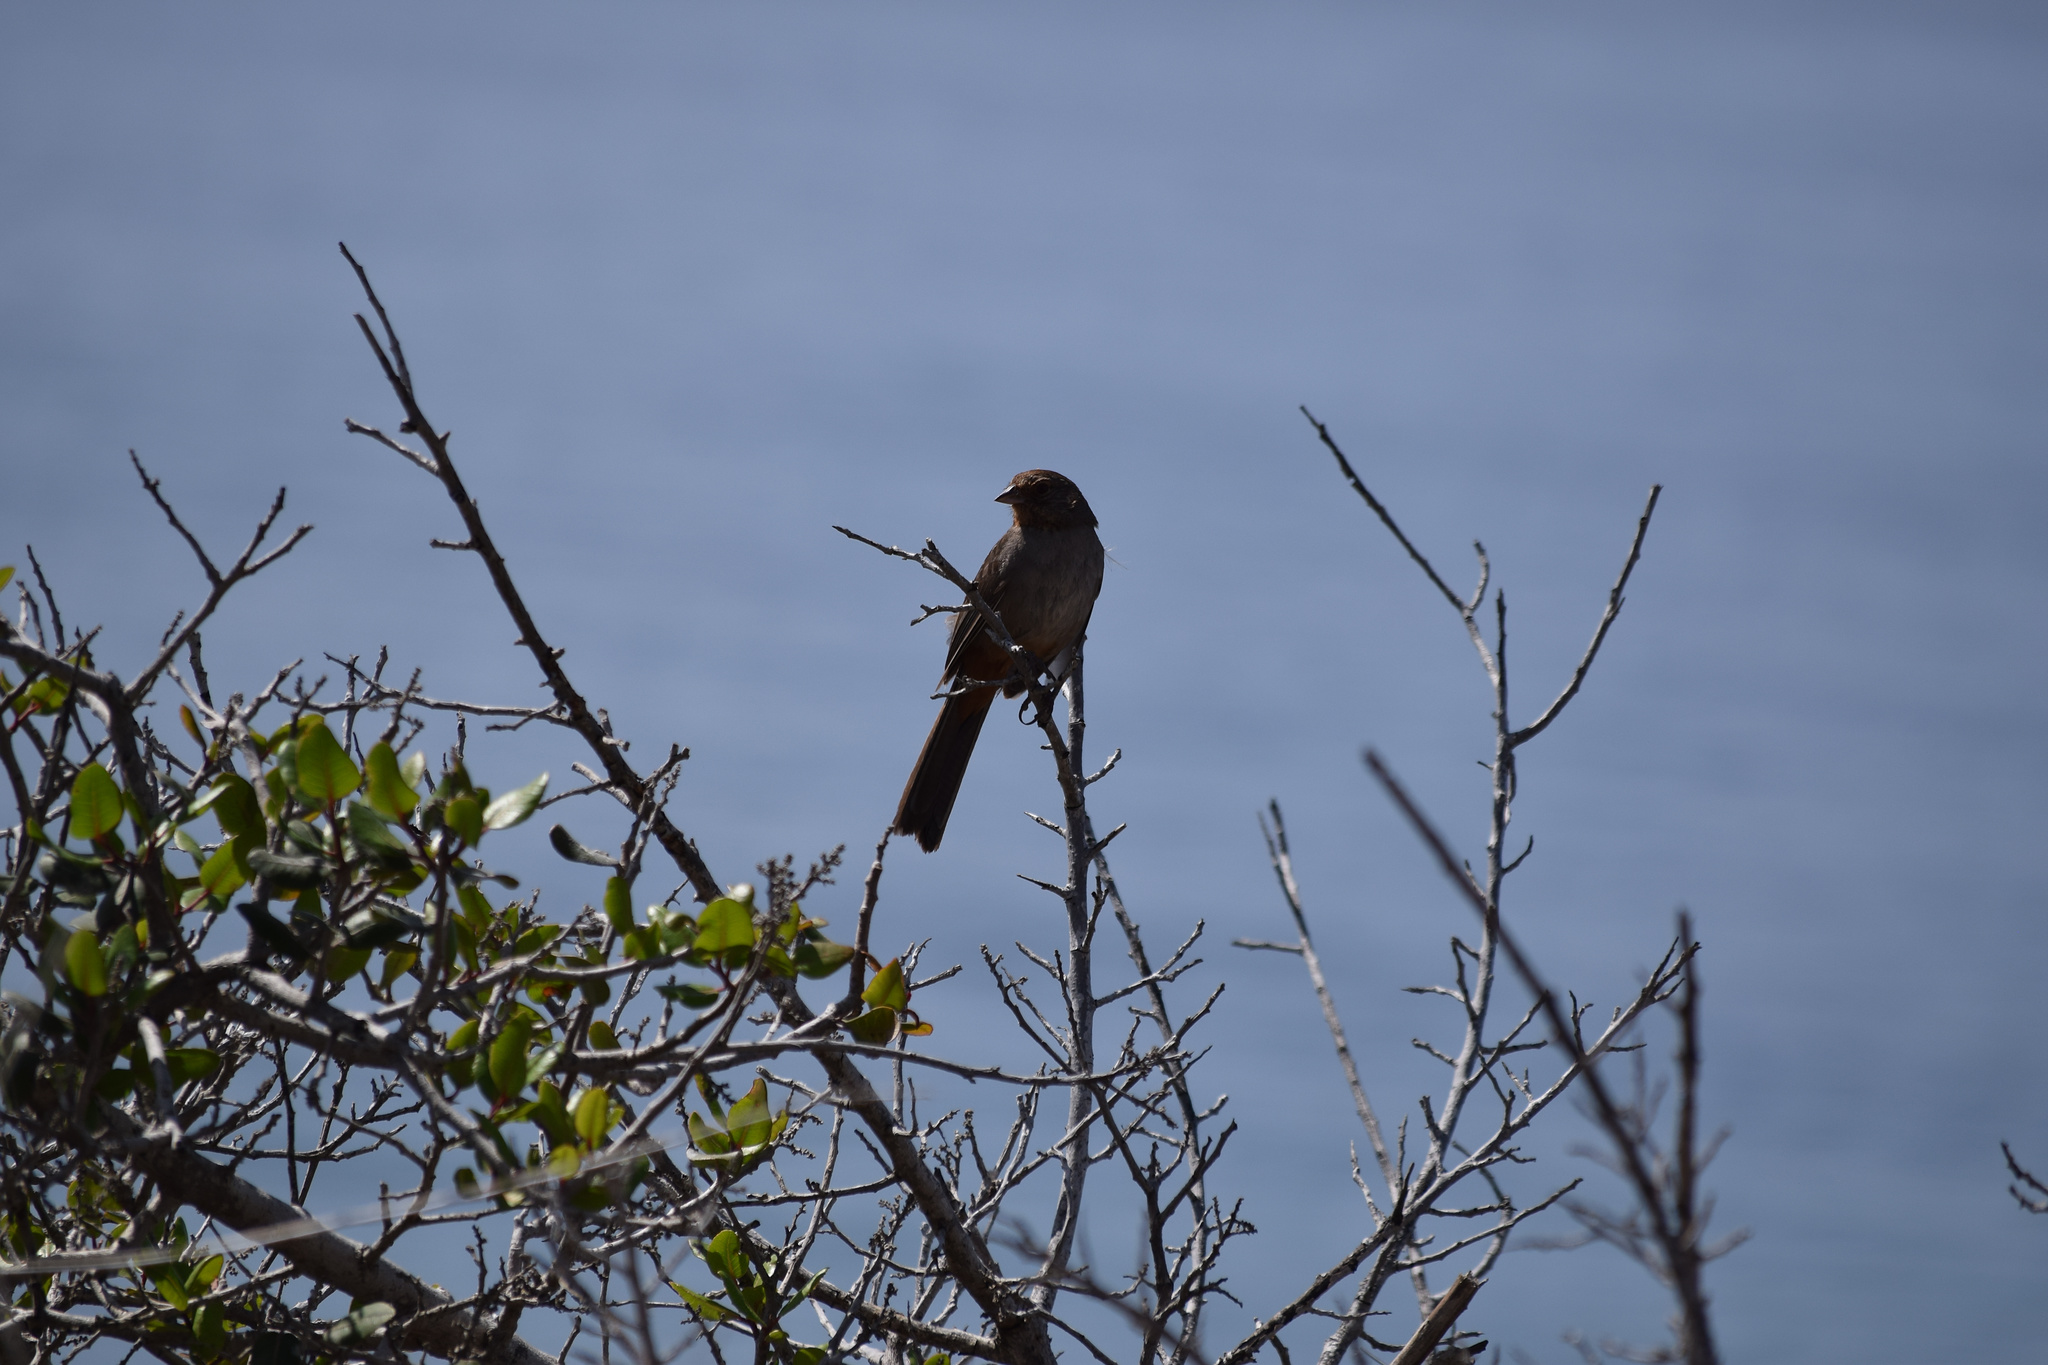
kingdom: Animalia
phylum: Chordata
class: Aves
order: Passeriformes
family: Passerellidae
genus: Melozone
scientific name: Melozone crissalis
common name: California towhee
